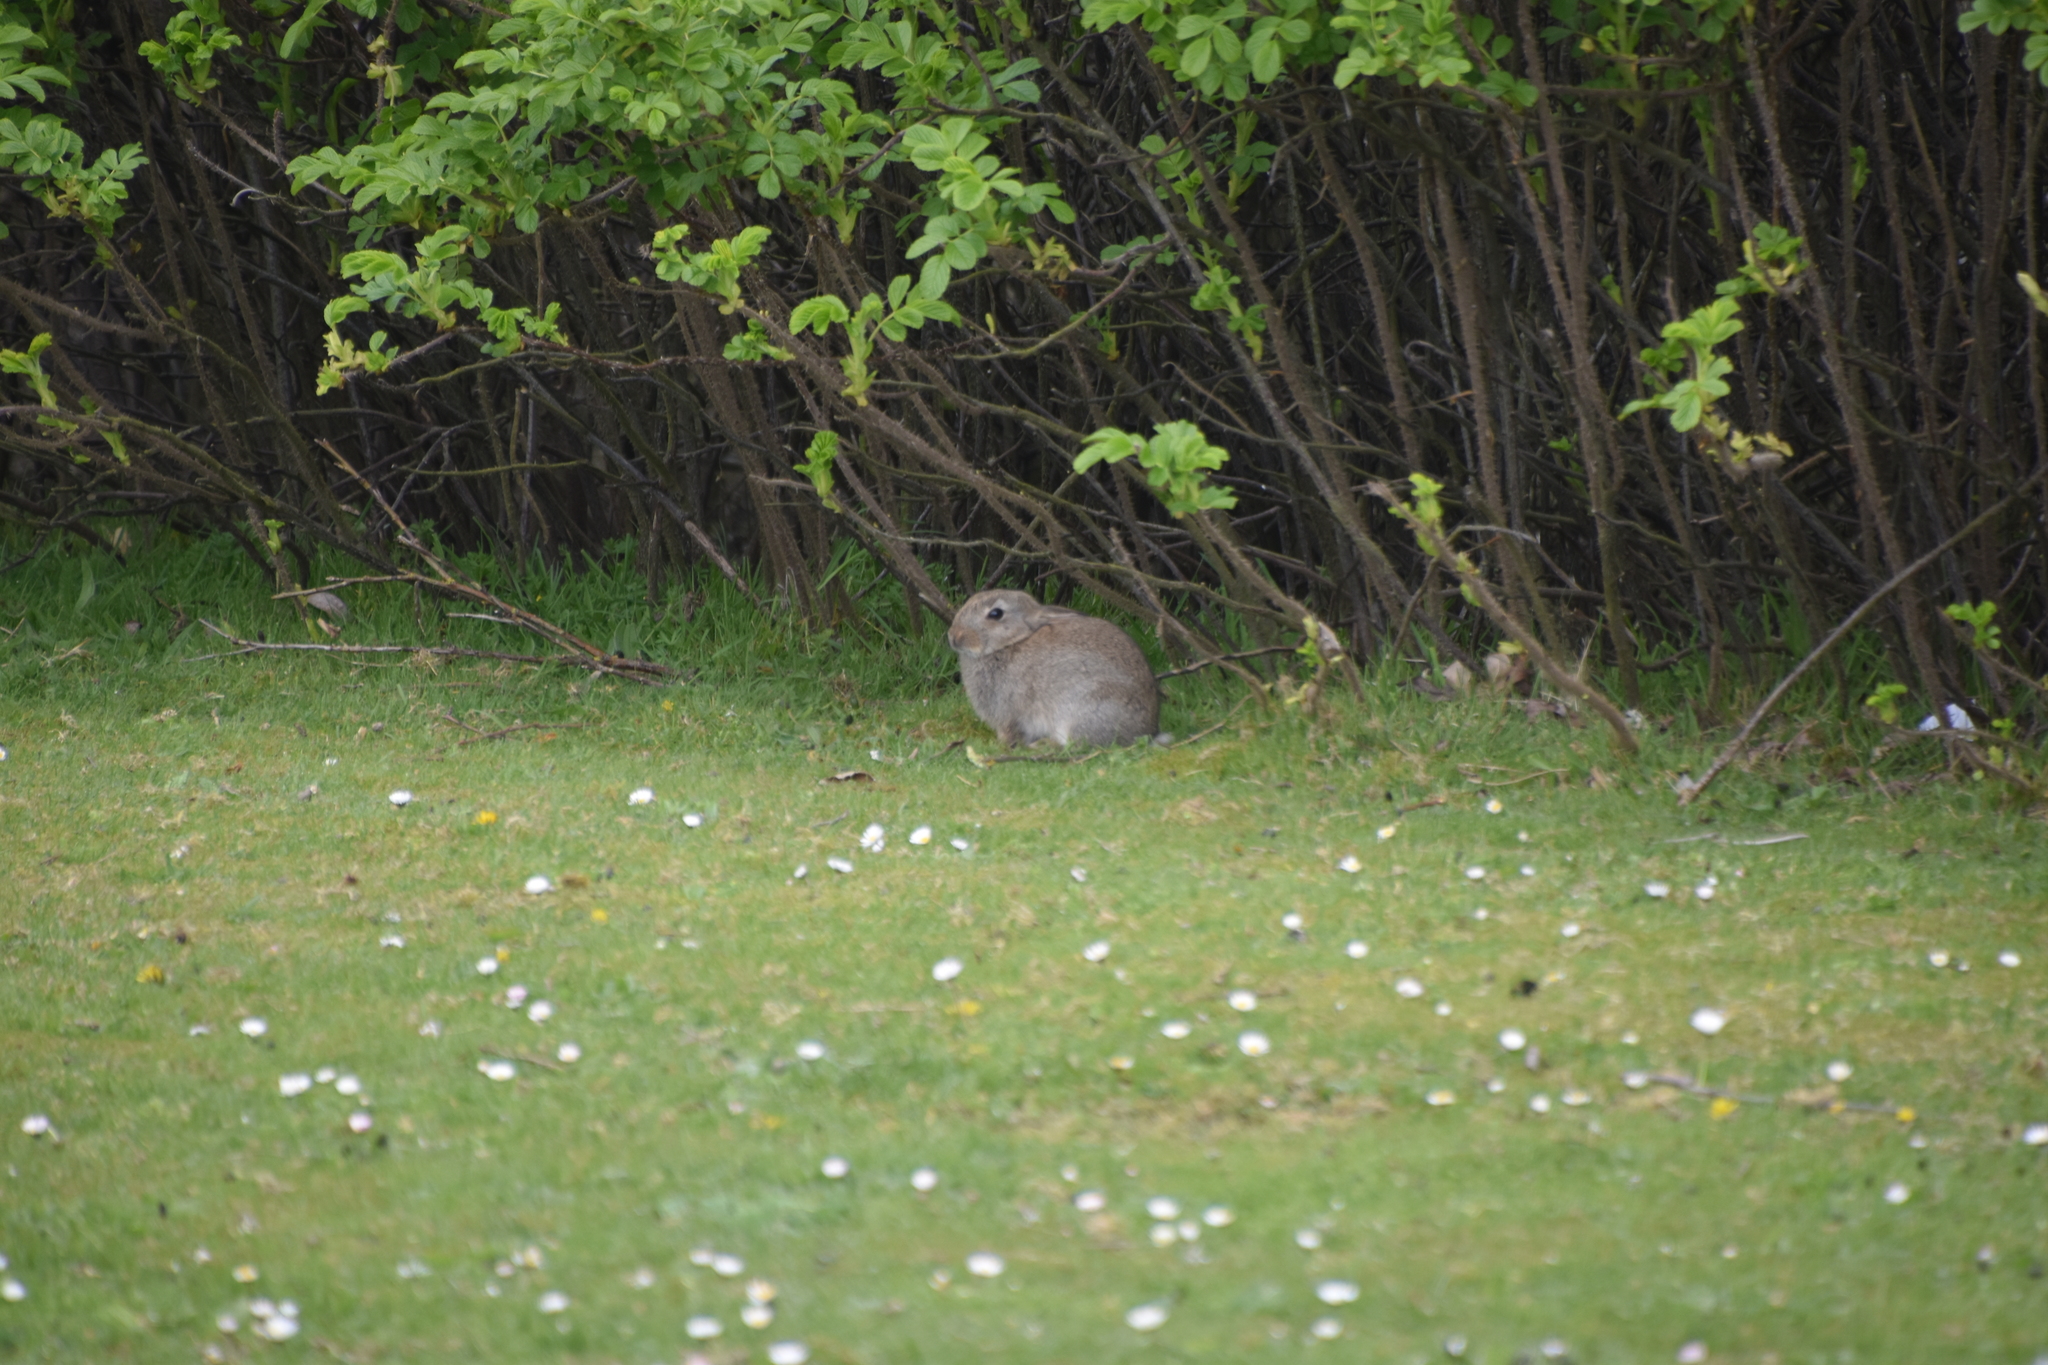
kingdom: Animalia
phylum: Chordata
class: Mammalia
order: Lagomorpha
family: Leporidae
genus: Oryctolagus
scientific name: Oryctolagus cuniculus
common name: European rabbit
